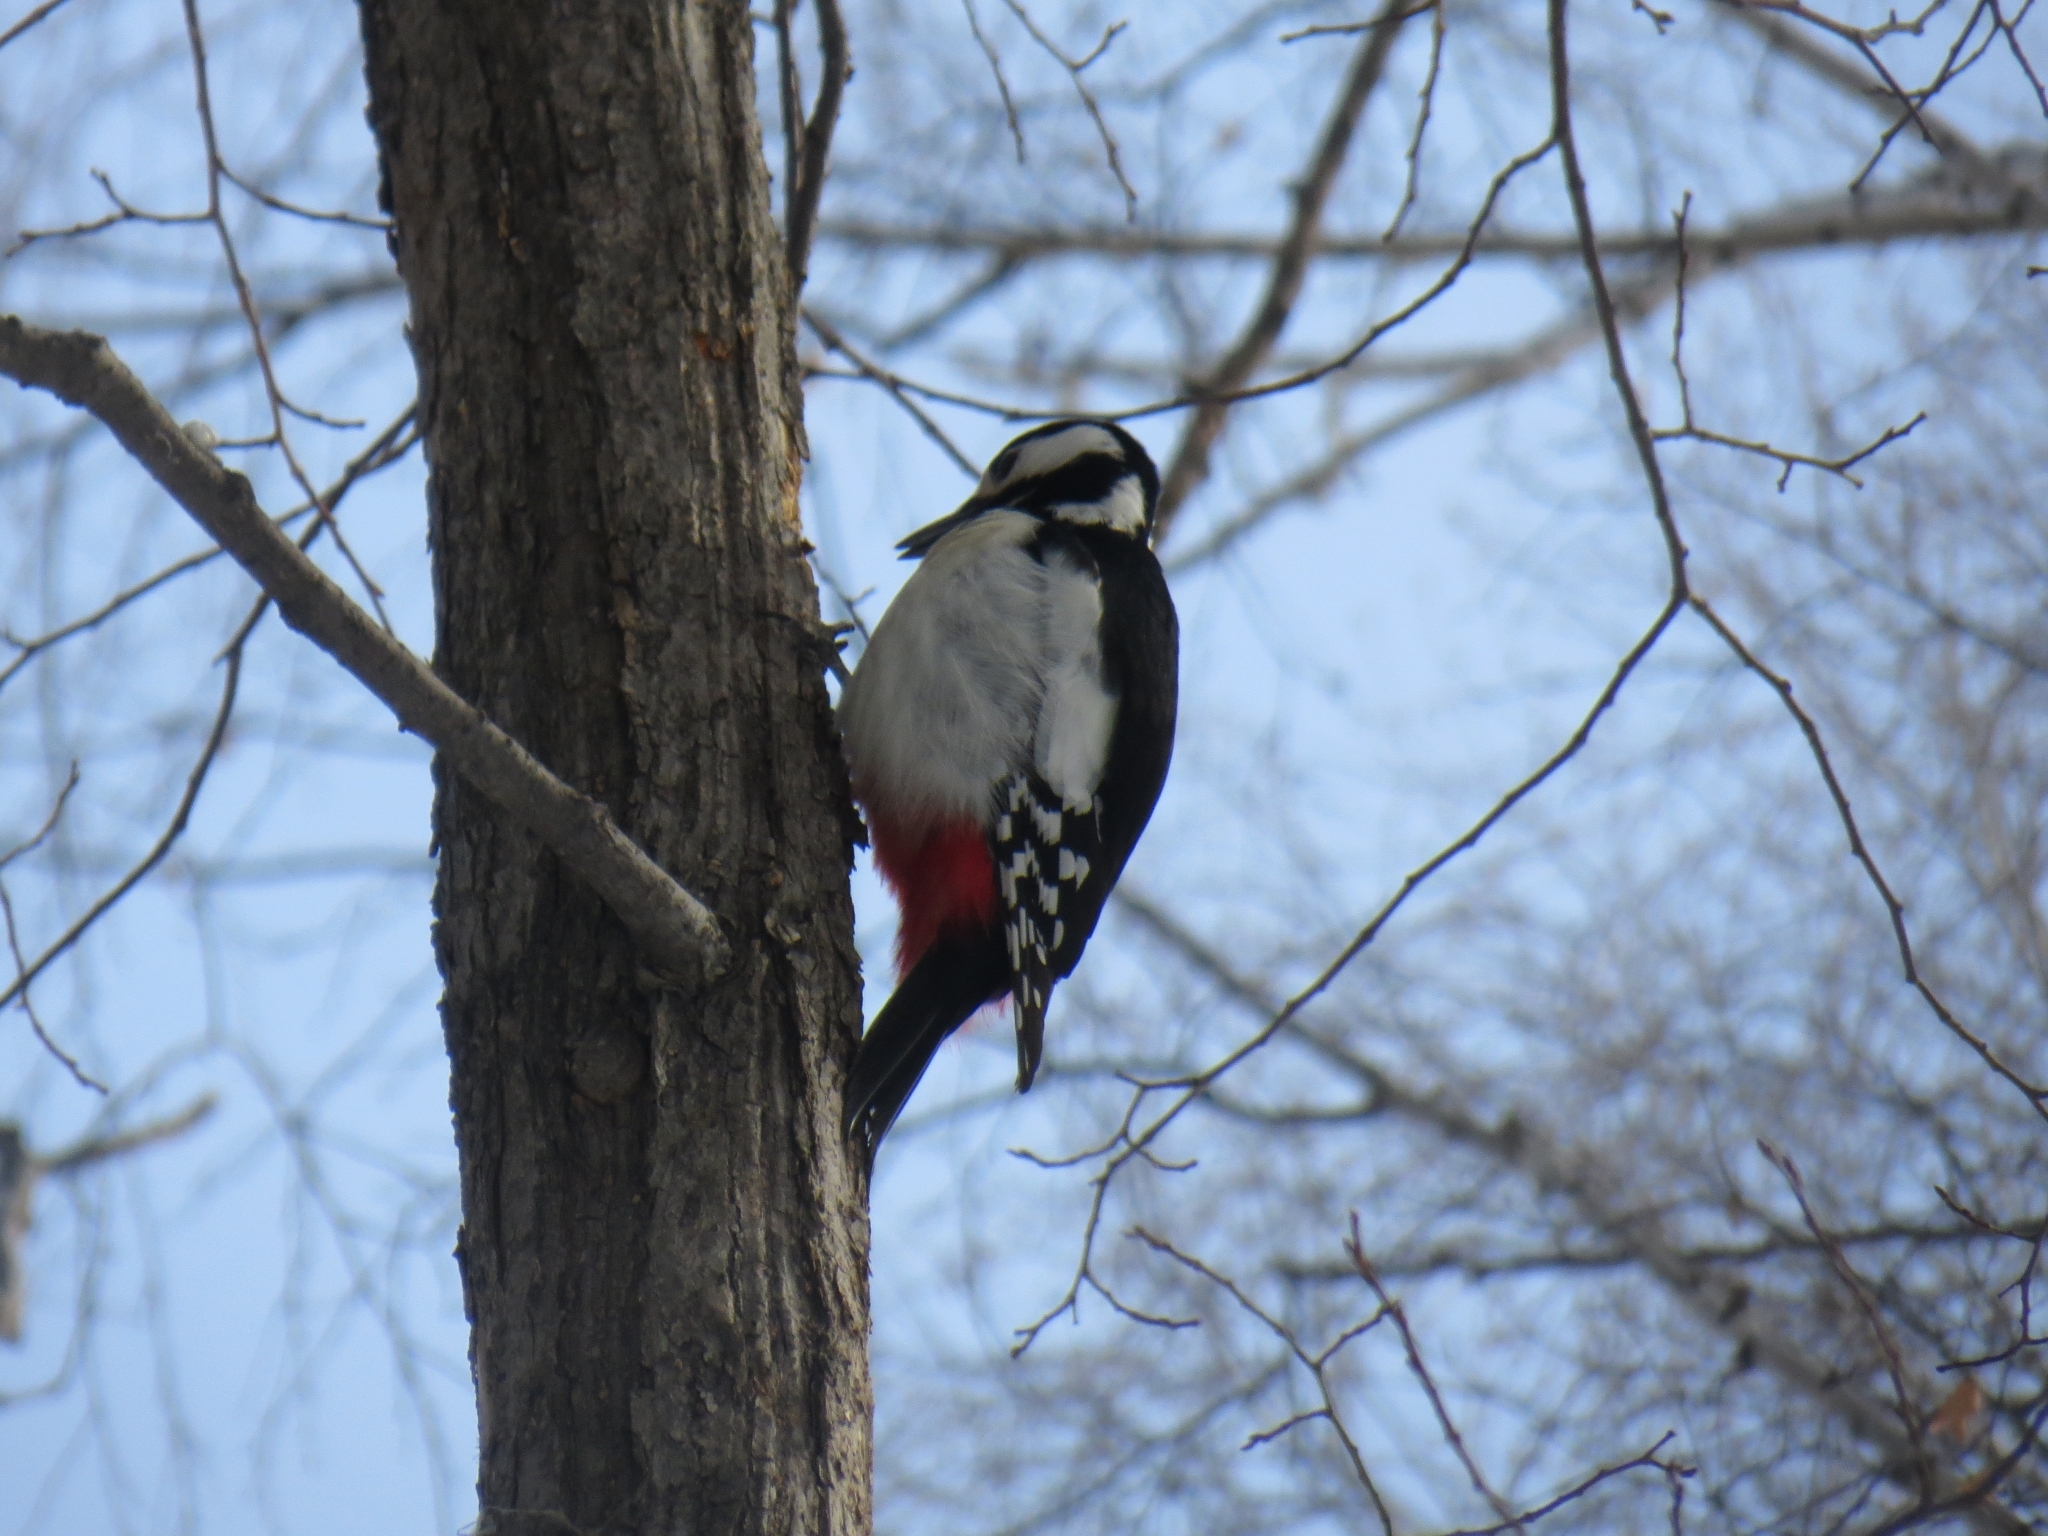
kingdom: Animalia
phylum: Chordata
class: Aves
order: Piciformes
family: Picidae
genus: Dendrocopos
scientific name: Dendrocopos major
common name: Great spotted woodpecker
